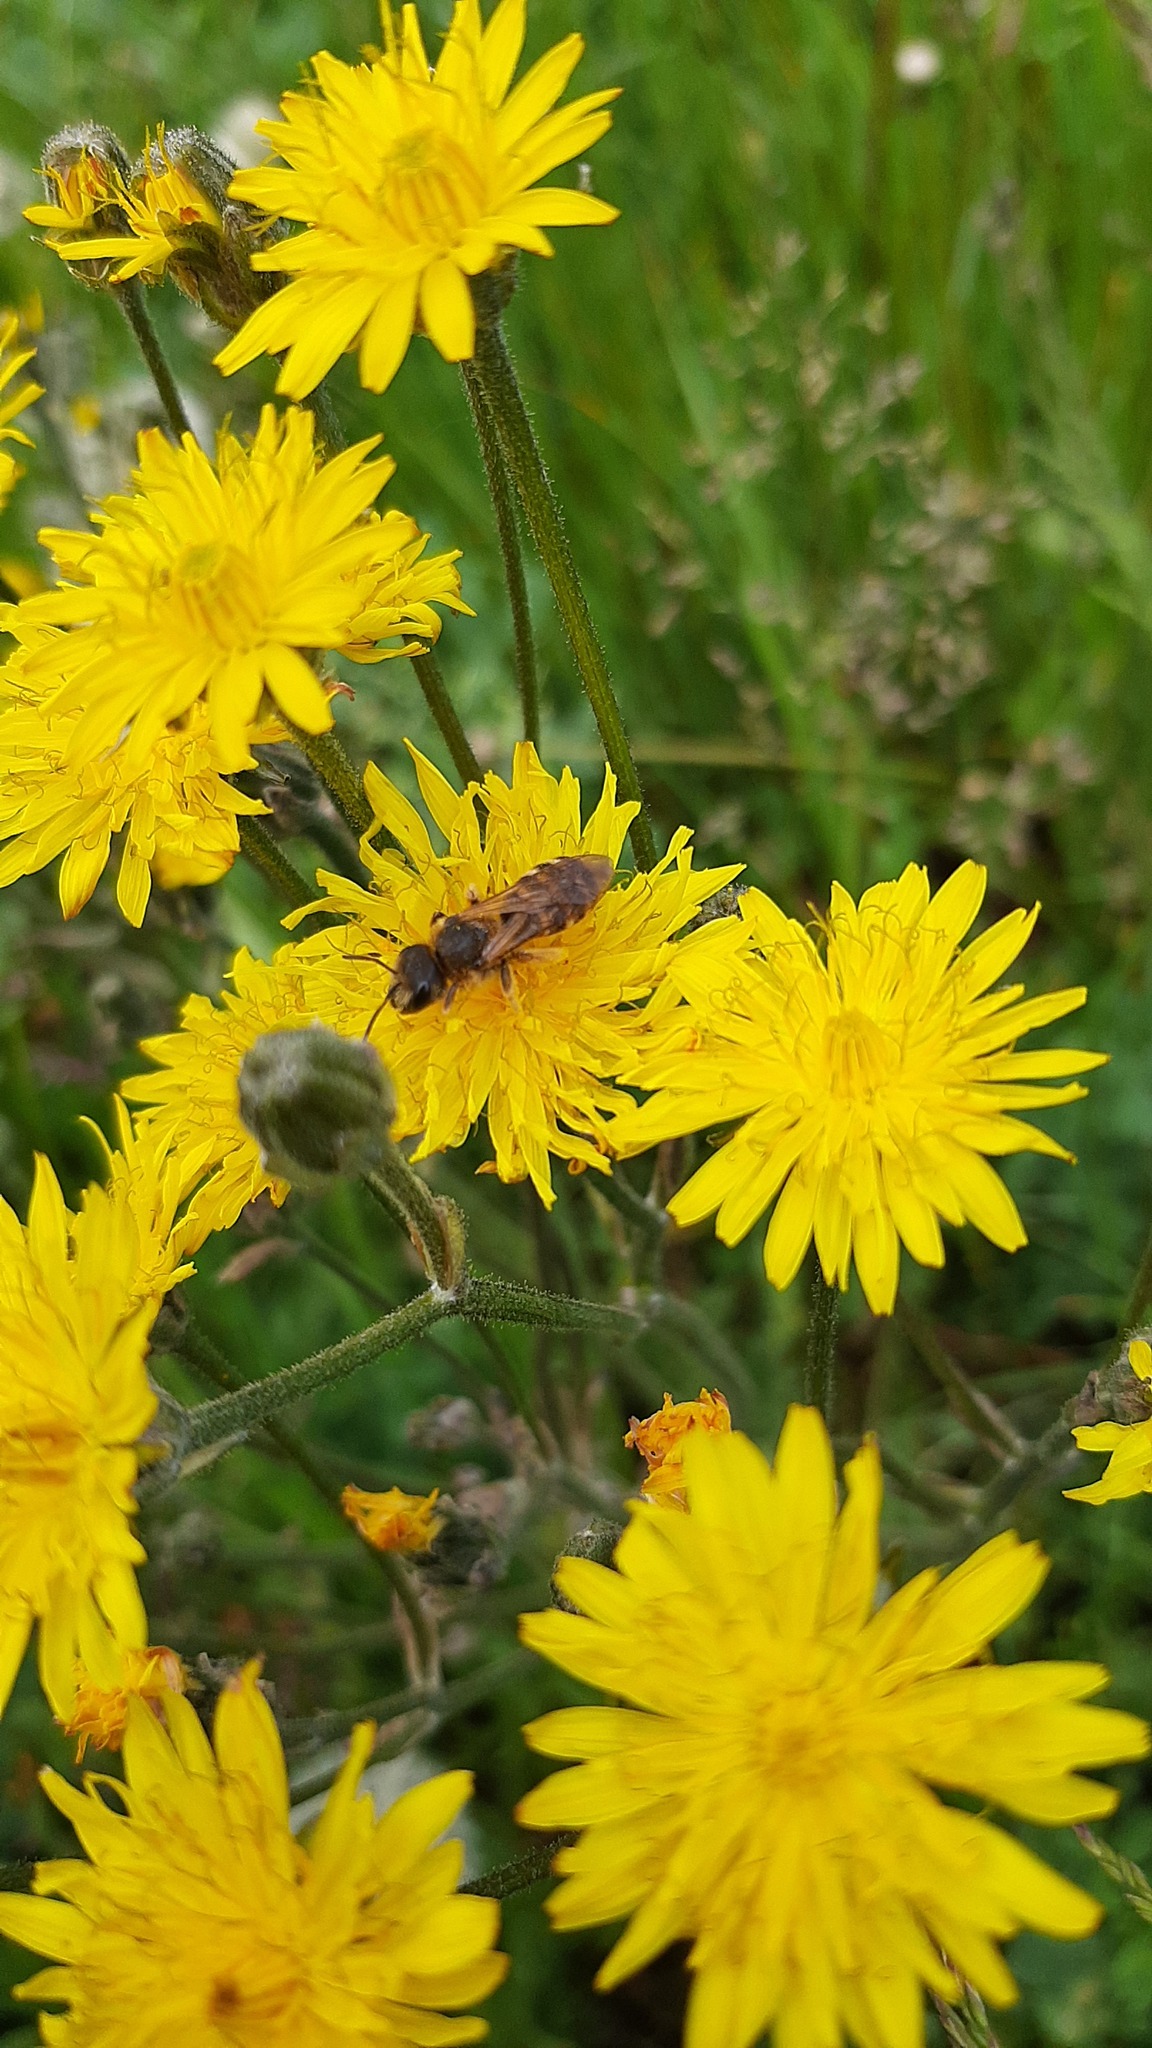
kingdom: Animalia
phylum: Arthropoda
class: Insecta
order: Hymenoptera
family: Halictidae
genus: Halictus
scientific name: Halictus scabiosae
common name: Great banded furrow bee
